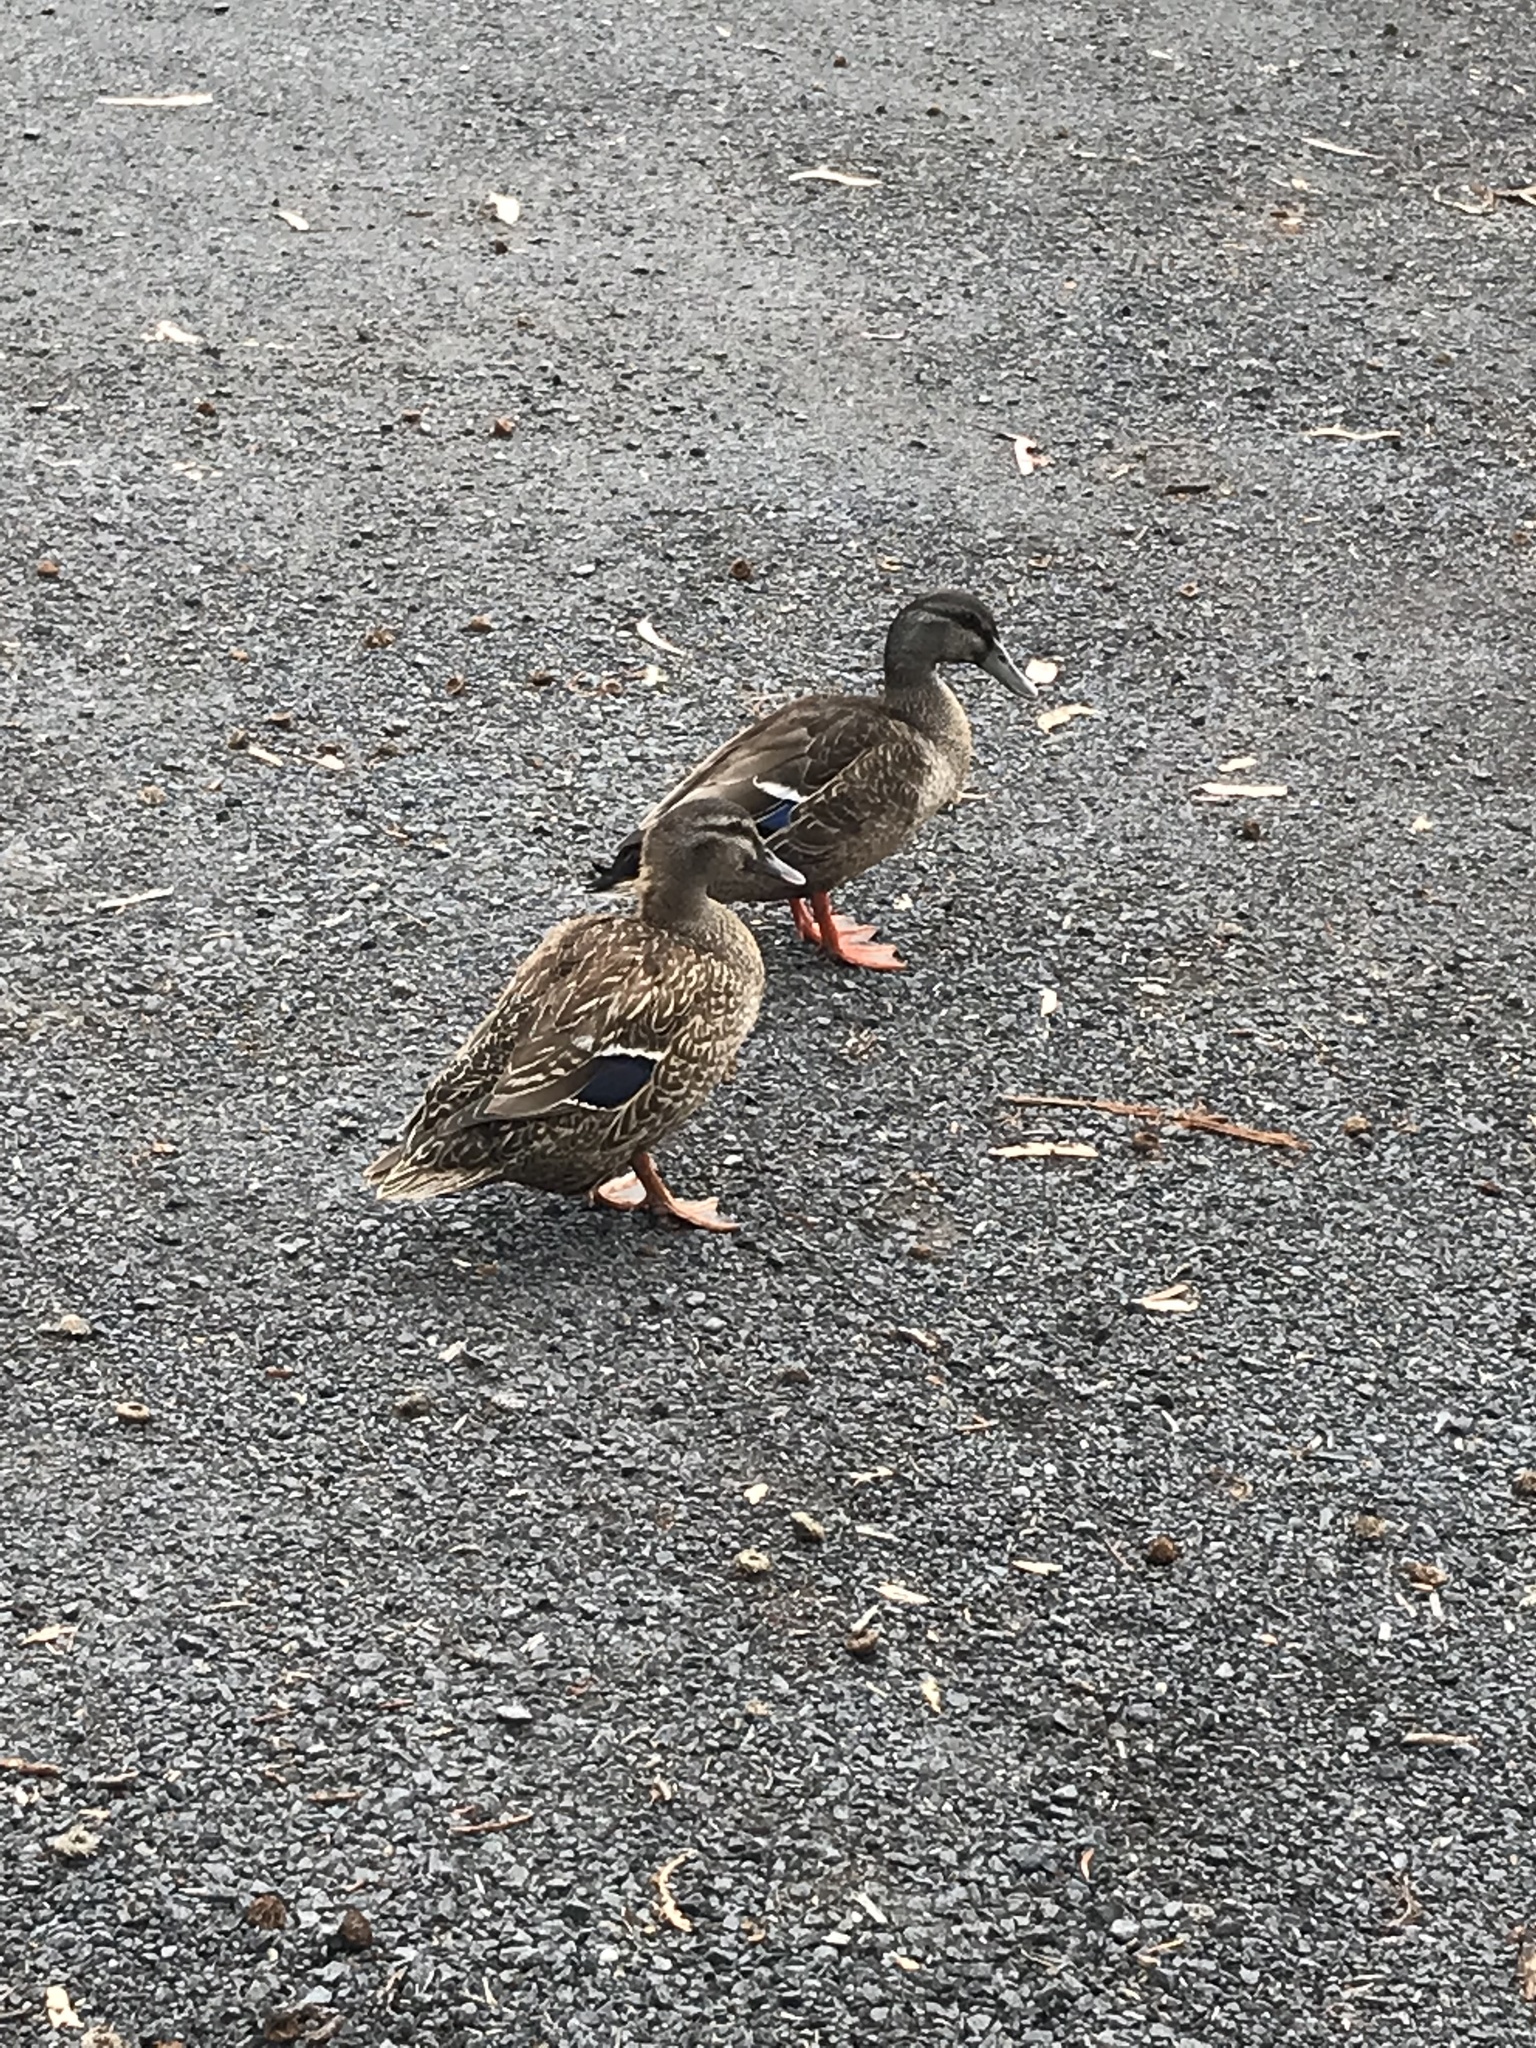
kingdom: Animalia
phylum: Chordata
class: Aves
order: Anseriformes
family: Anatidae
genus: Anas
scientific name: Anas
